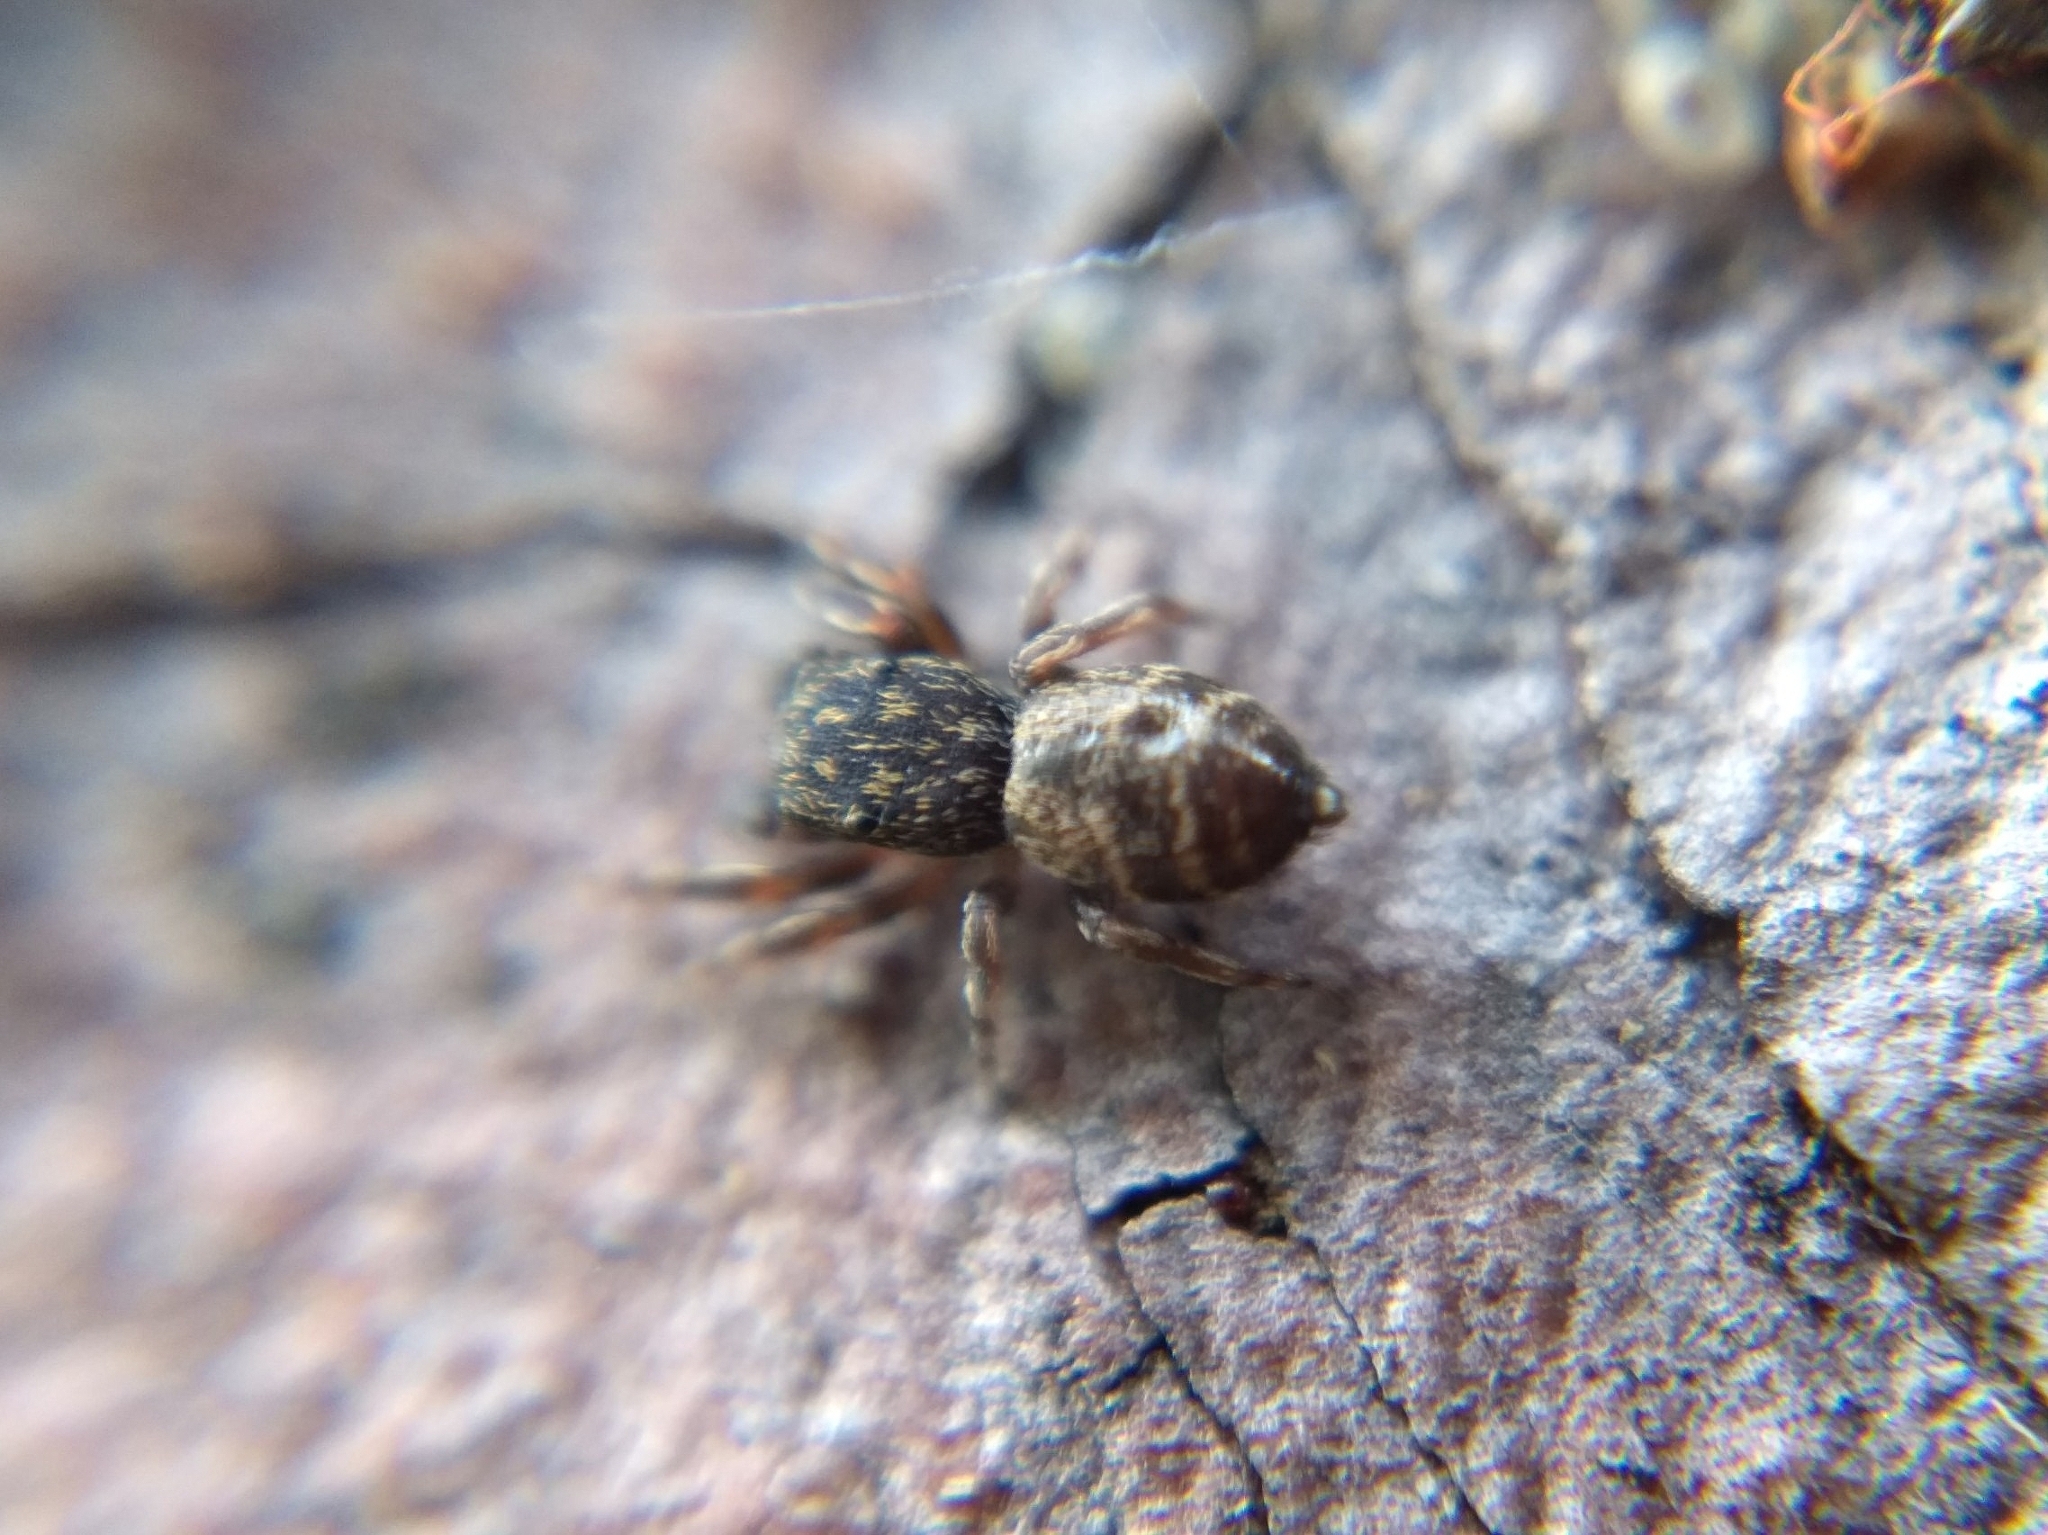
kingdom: Animalia
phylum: Arthropoda
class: Arachnida
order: Araneae
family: Salticidae
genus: Attidops
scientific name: Attidops youngi
